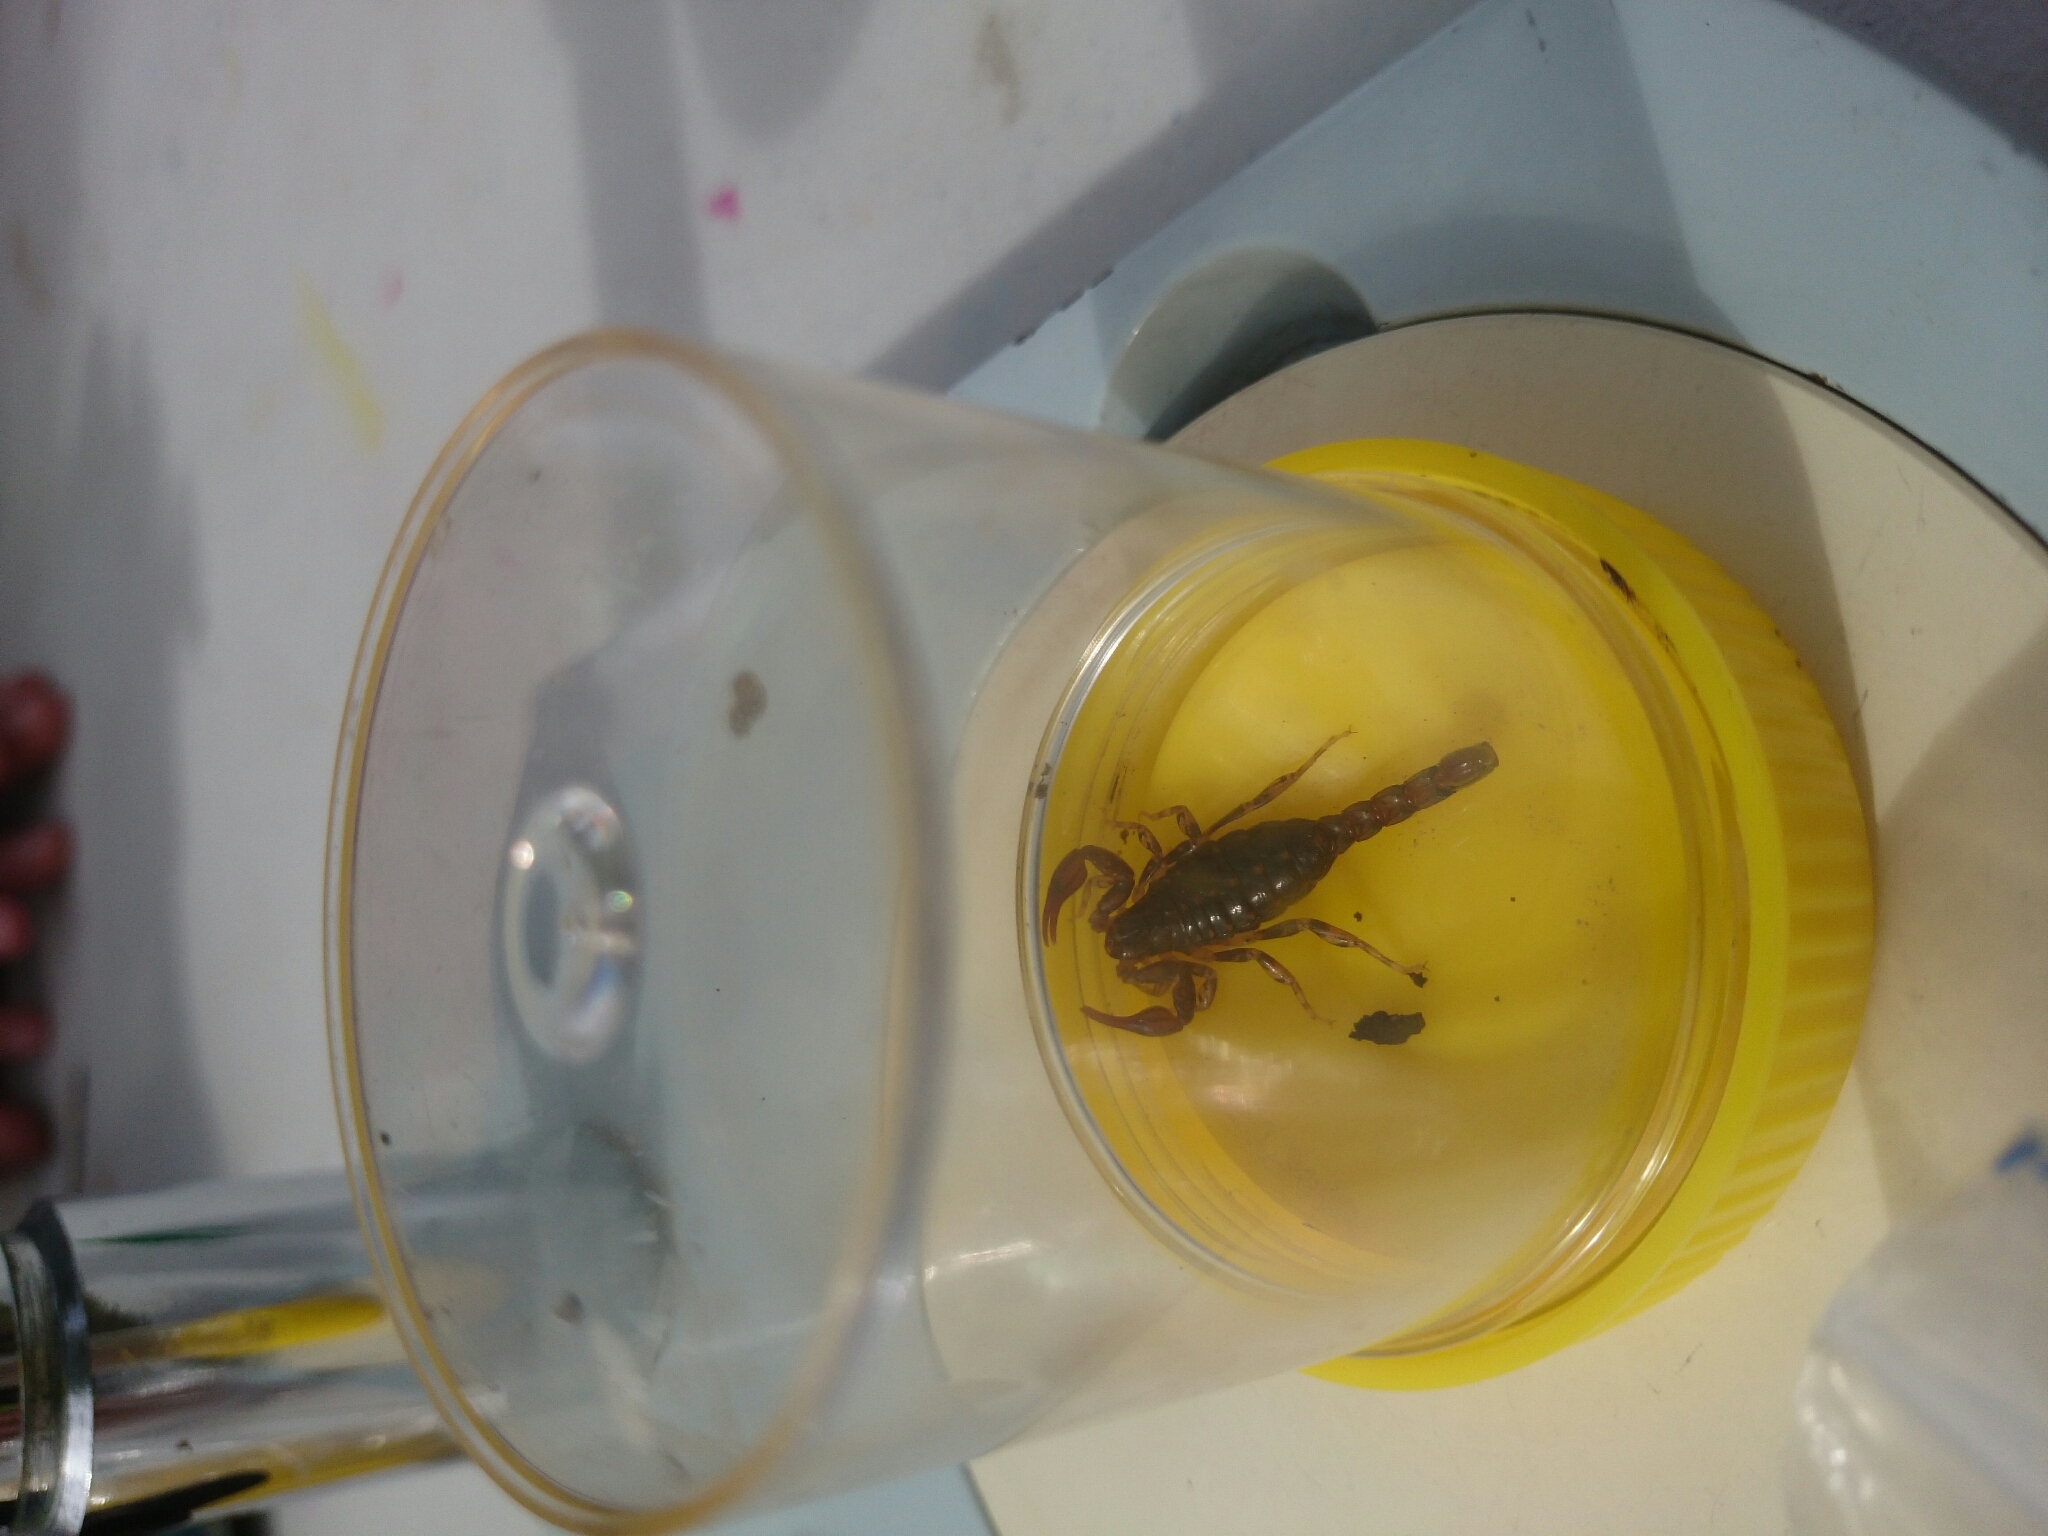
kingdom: Animalia
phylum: Arthropoda
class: Arachnida
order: Scorpiones
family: Bothriuridae
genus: Cercophonius
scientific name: Cercophonius squama
